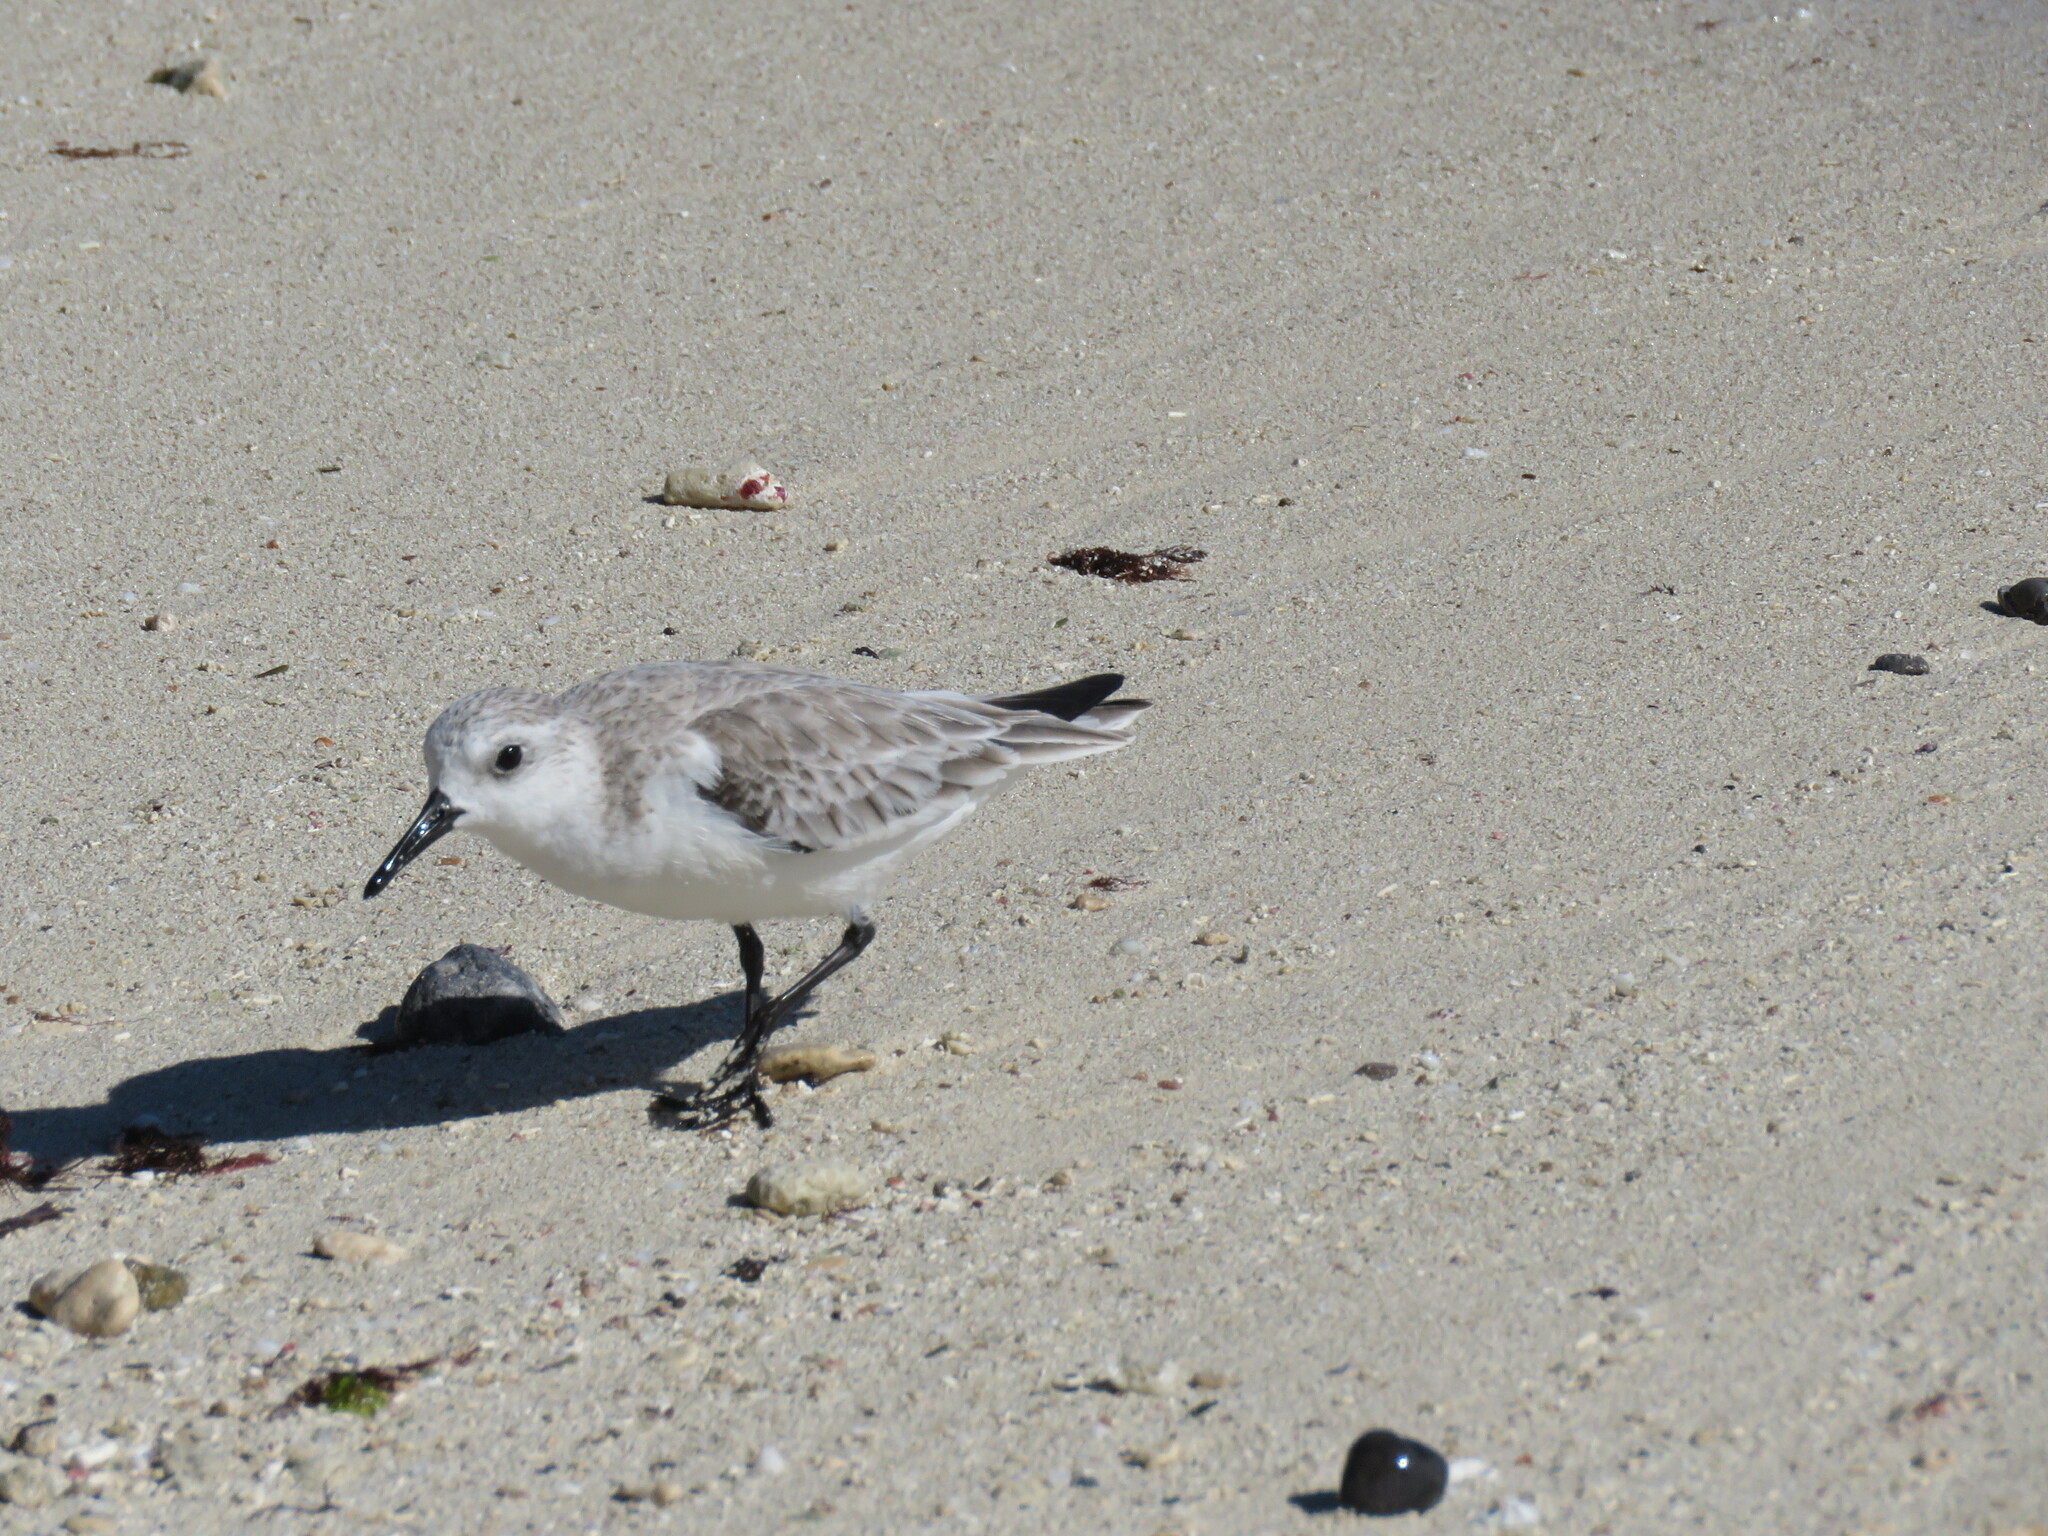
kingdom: Animalia
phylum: Chordata
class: Aves
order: Charadriiformes
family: Scolopacidae
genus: Calidris
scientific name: Calidris alba
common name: Sanderling
